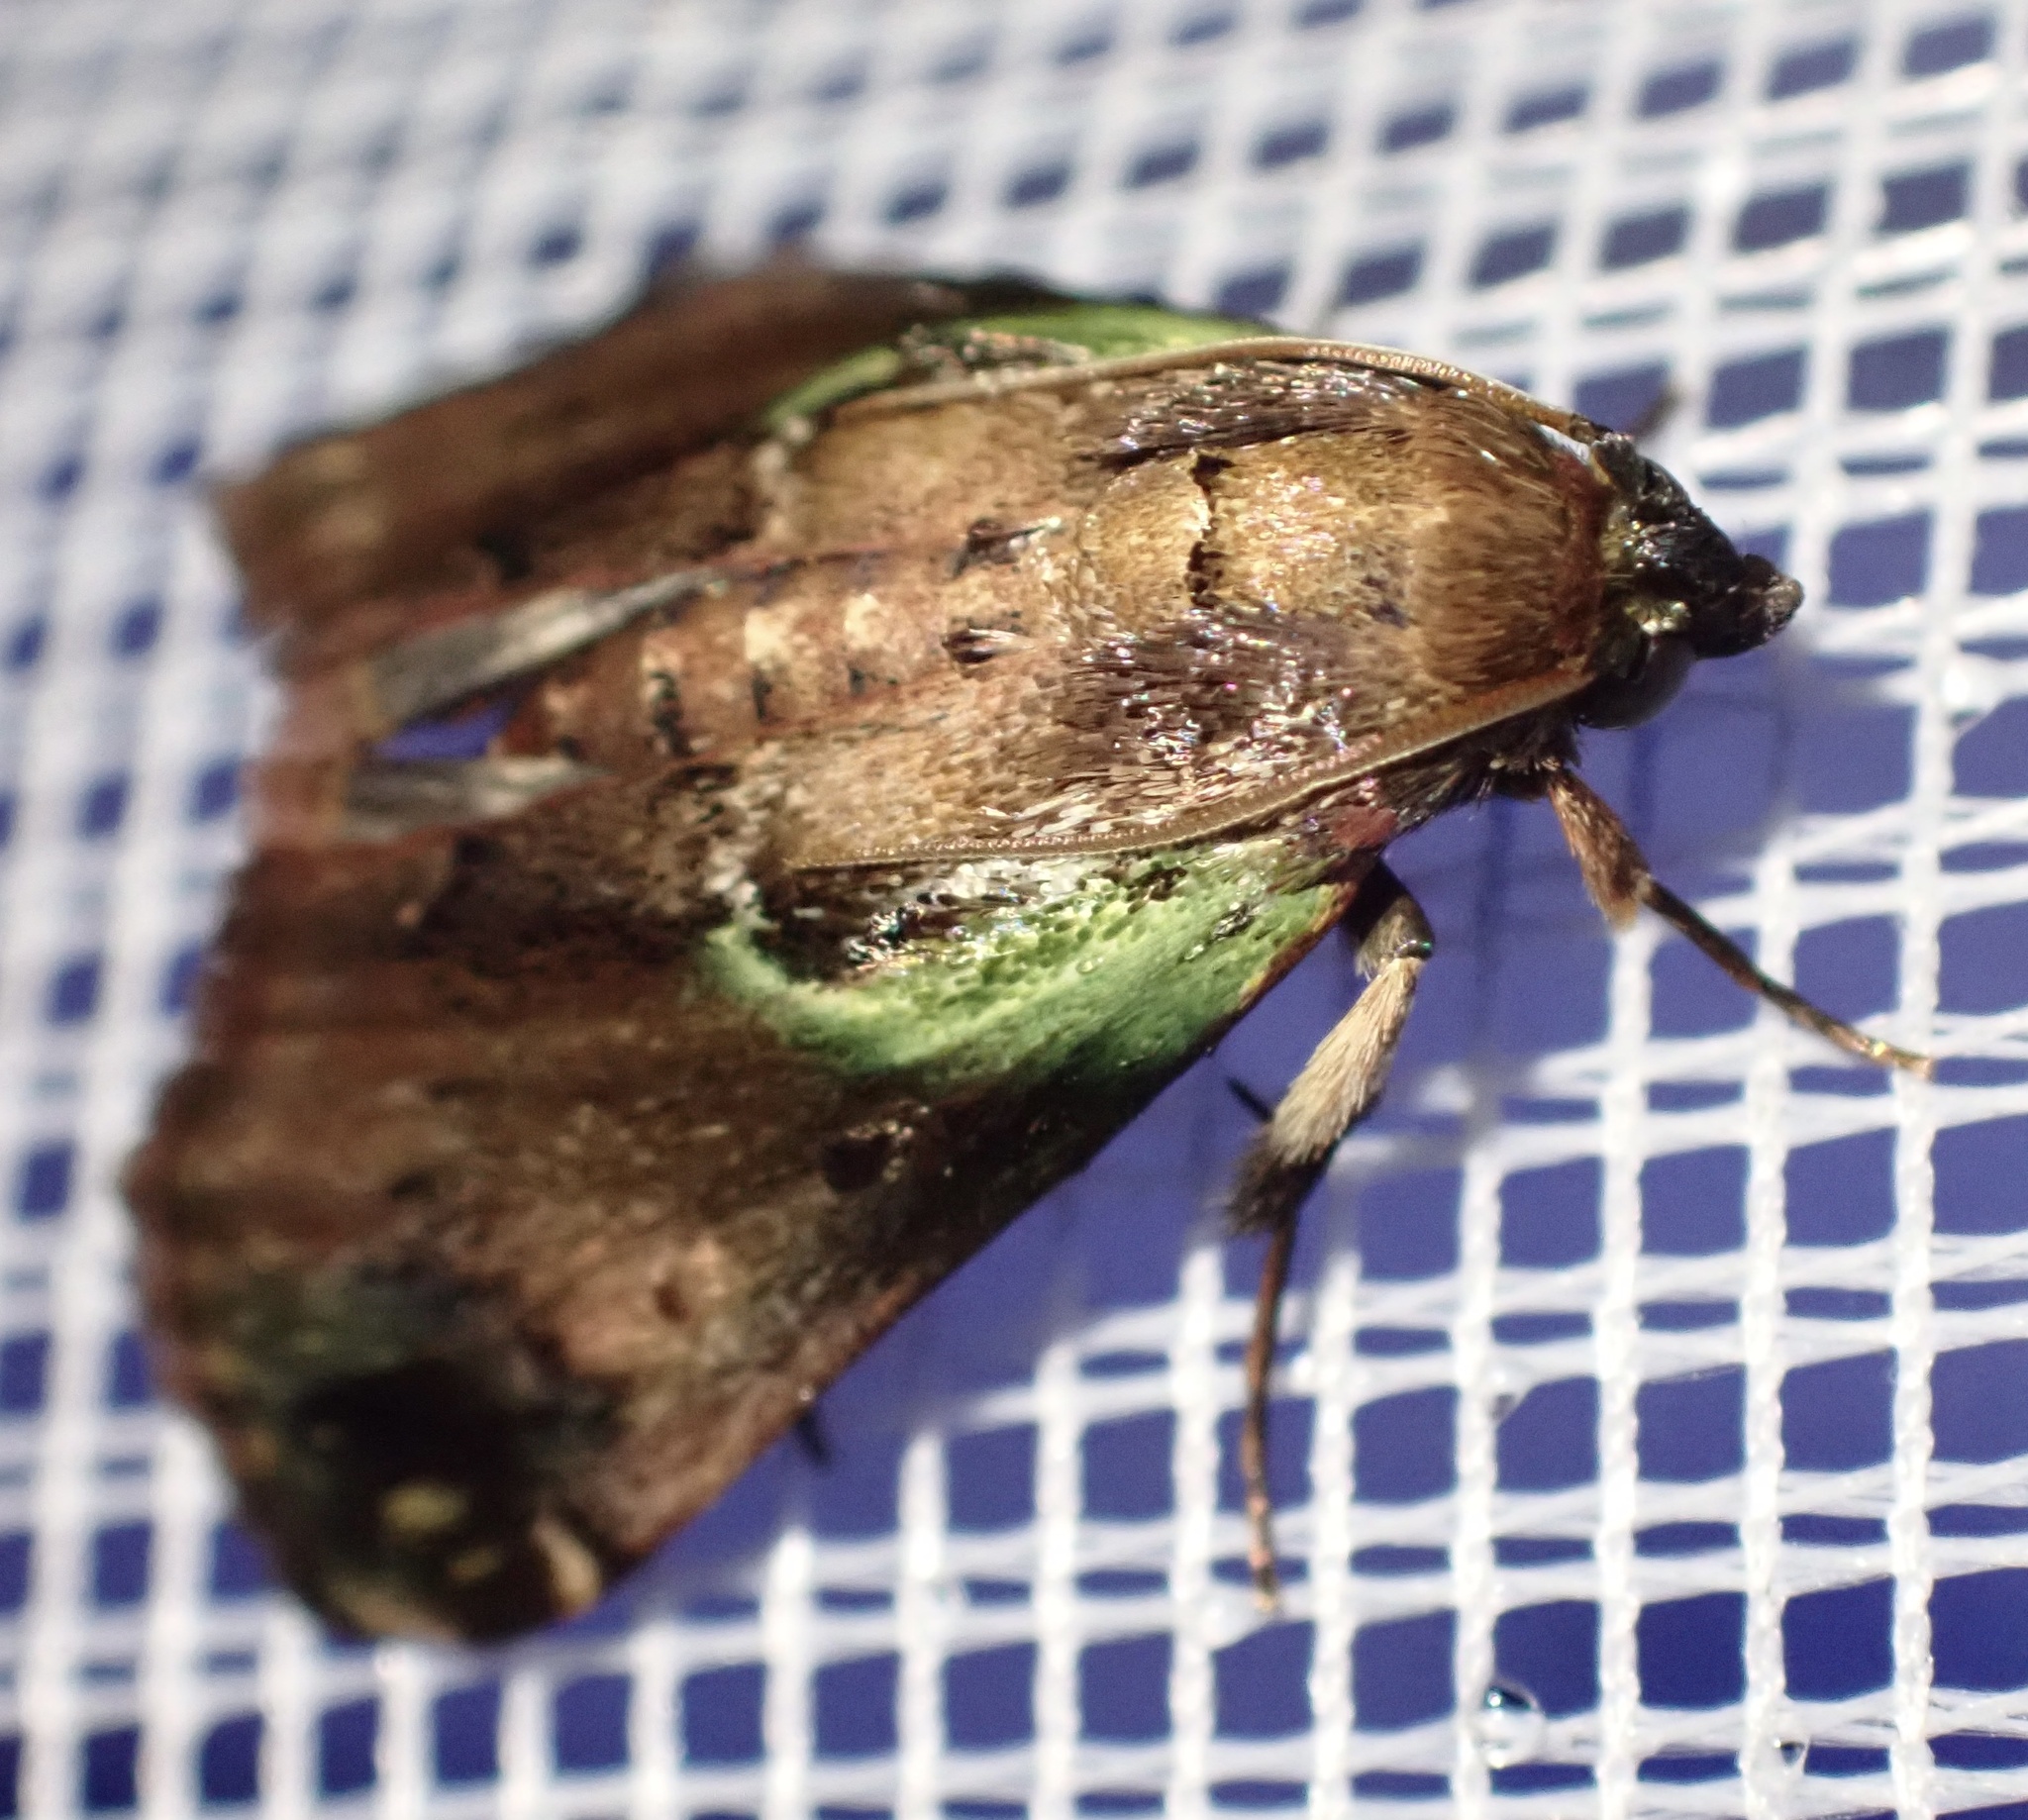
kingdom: Animalia
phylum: Arthropoda
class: Insecta
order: Lepidoptera
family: Pyralidae
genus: Doddiana
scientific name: Doddiana callizona
